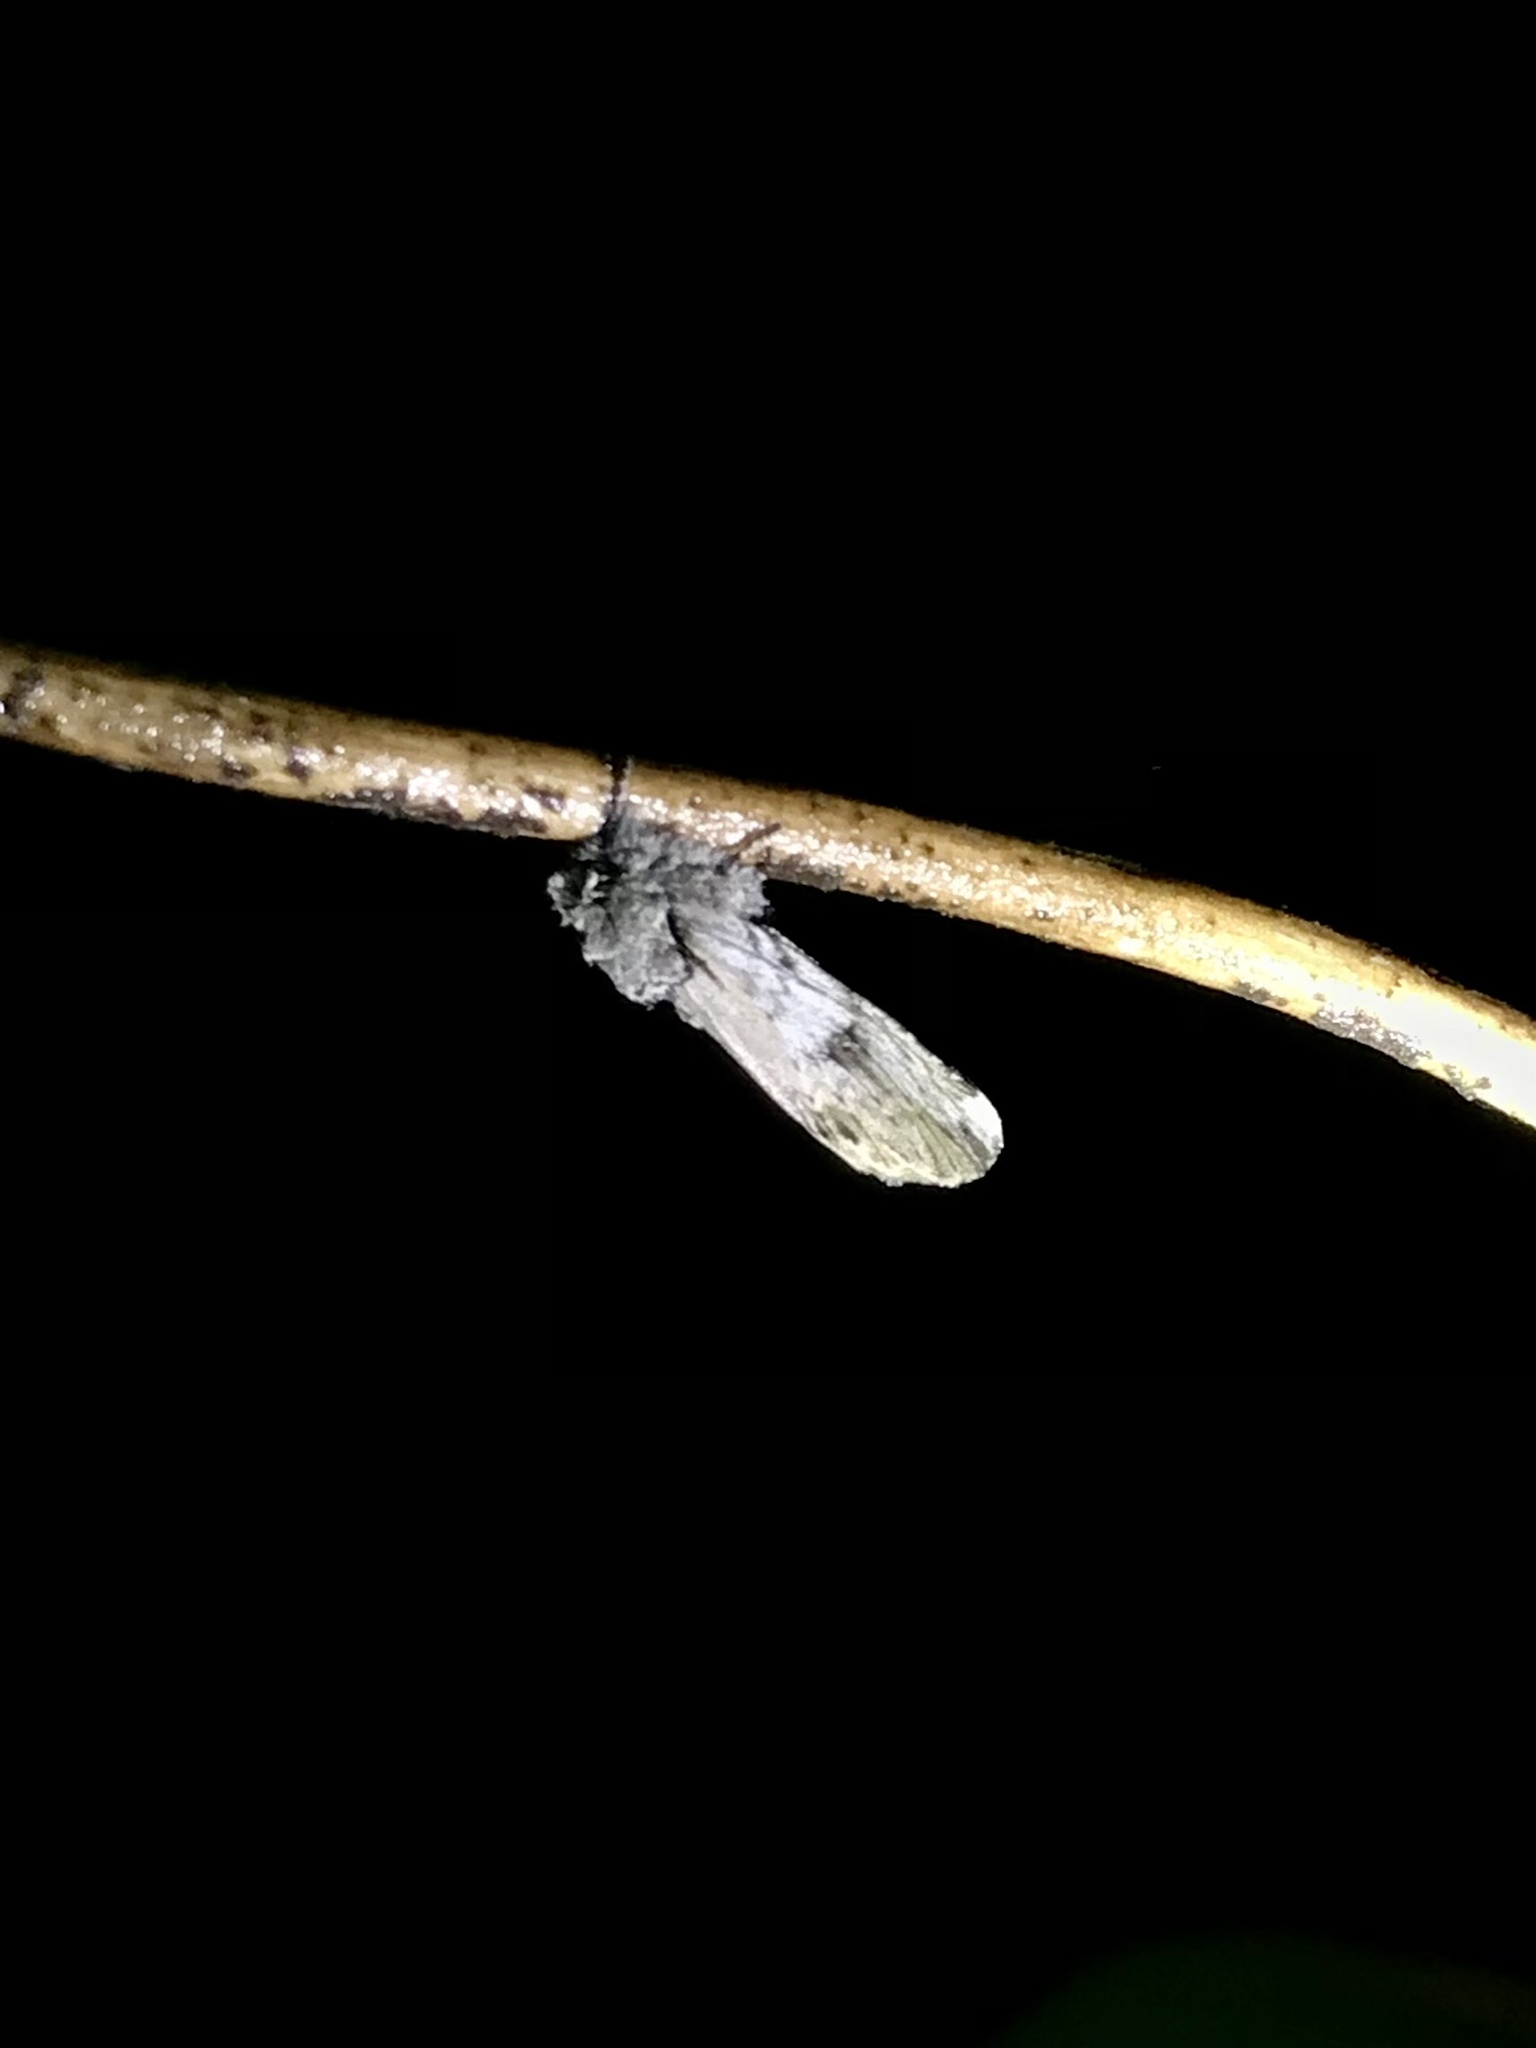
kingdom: Animalia
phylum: Arthropoda
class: Insecta
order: Lepidoptera
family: Notodontidae
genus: Schizura
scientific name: Schizura
